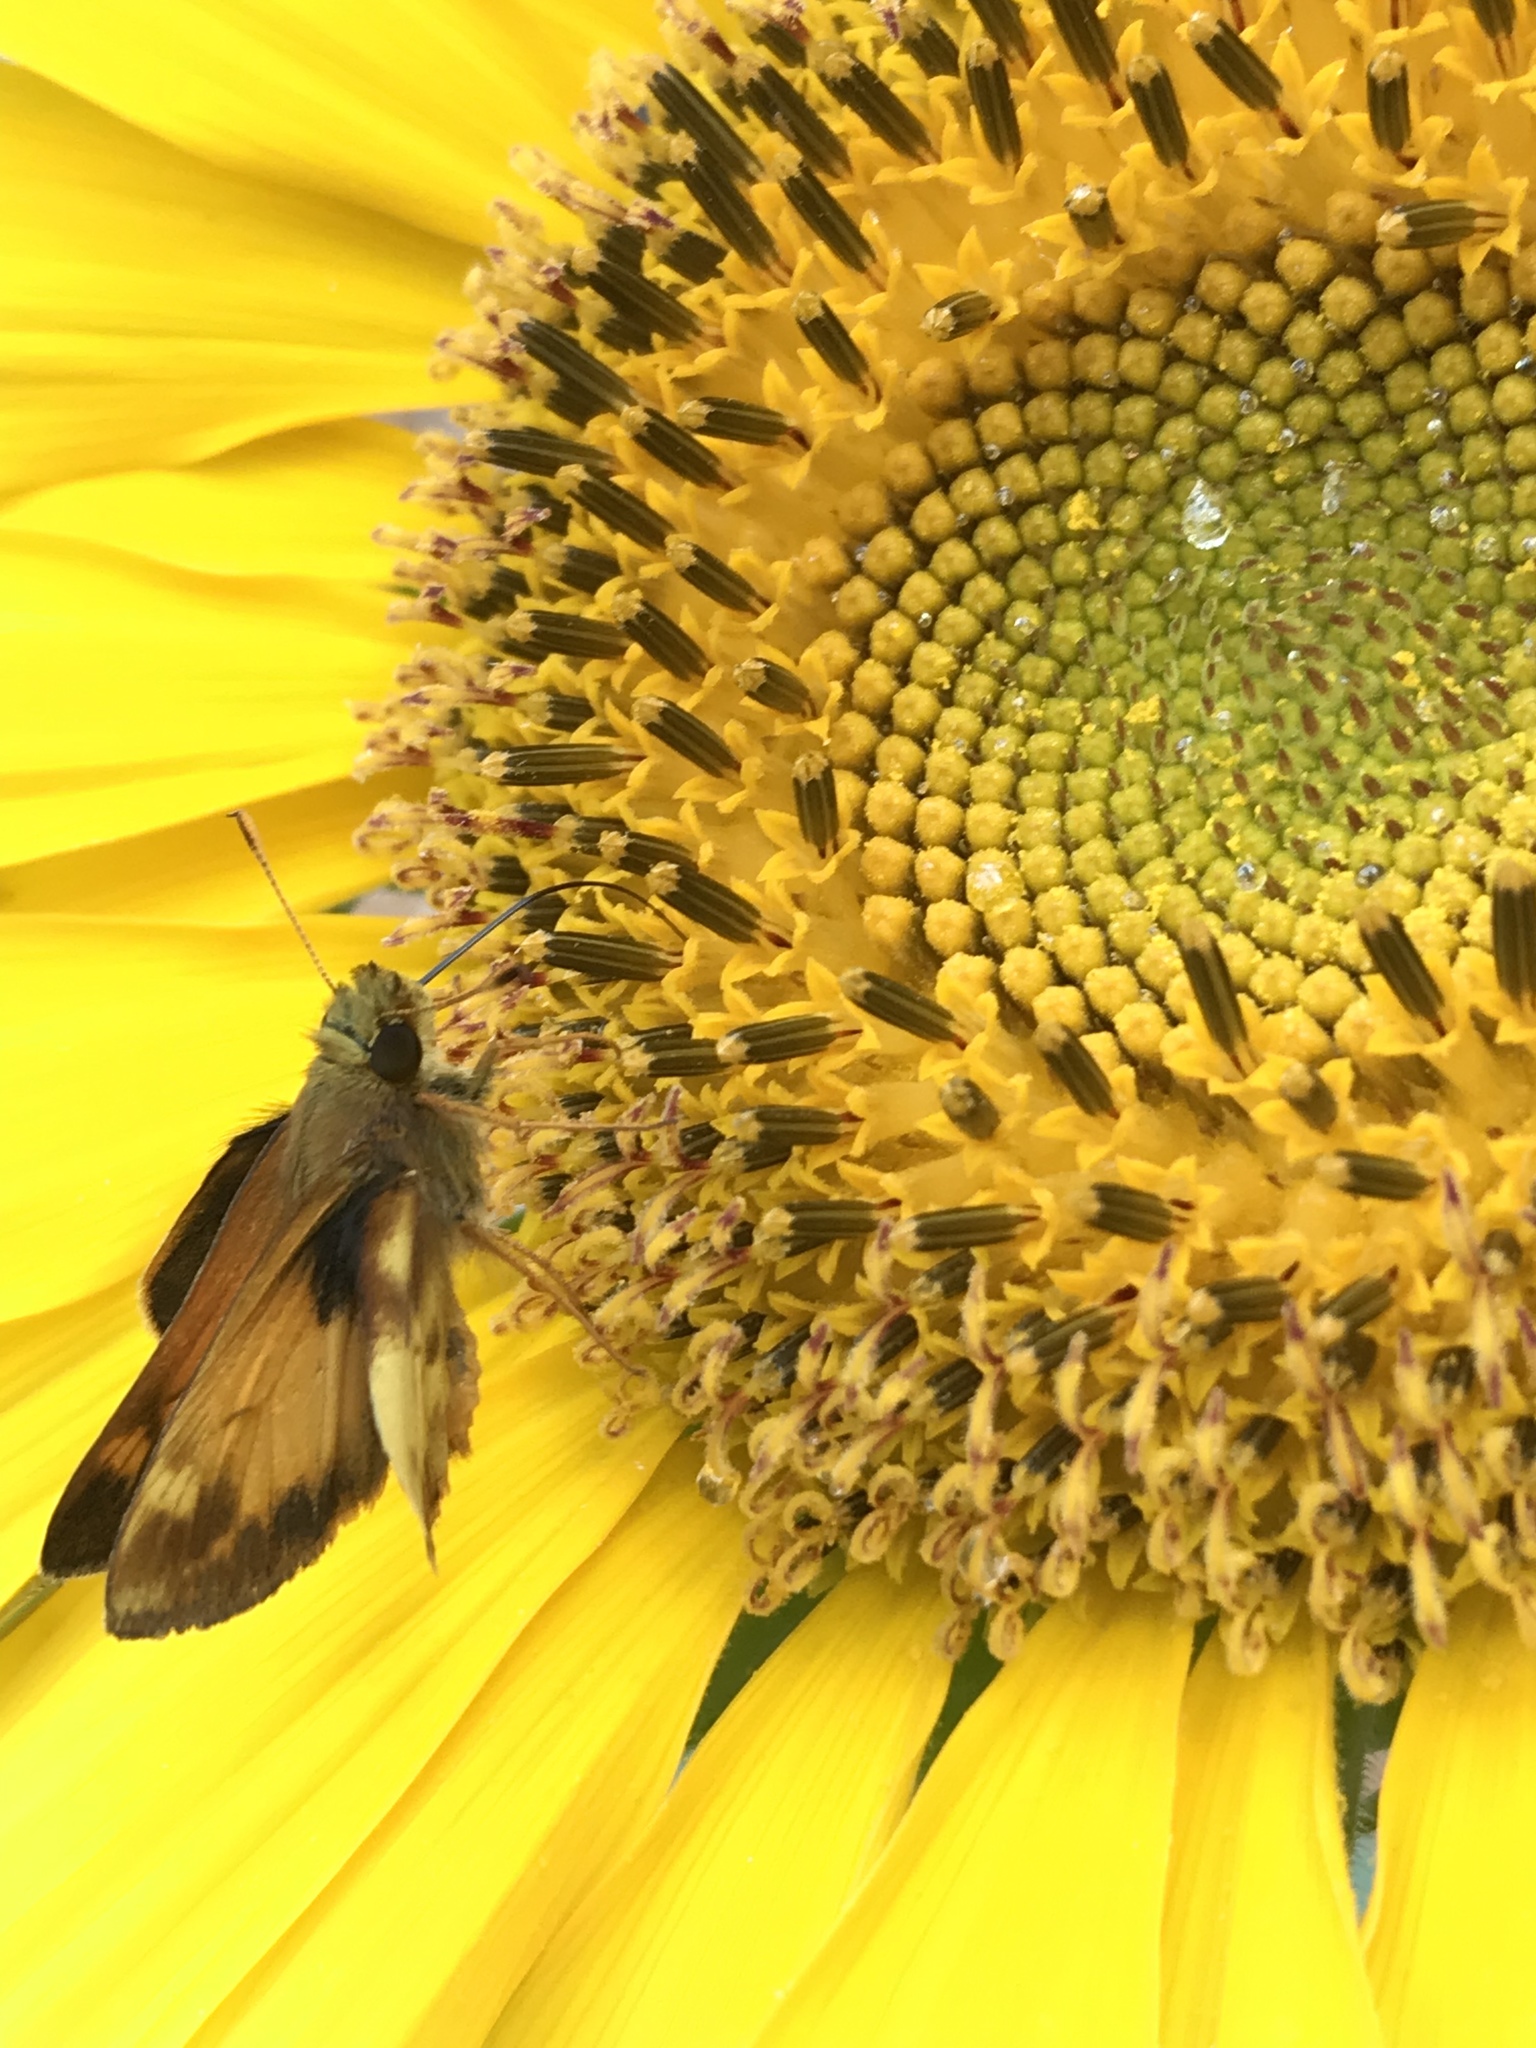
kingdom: Animalia
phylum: Arthropoda
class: Insecta
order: Lepidoptera
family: Hesperiidae
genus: Lon
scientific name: Lon zabulon
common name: Zabulon skipper
